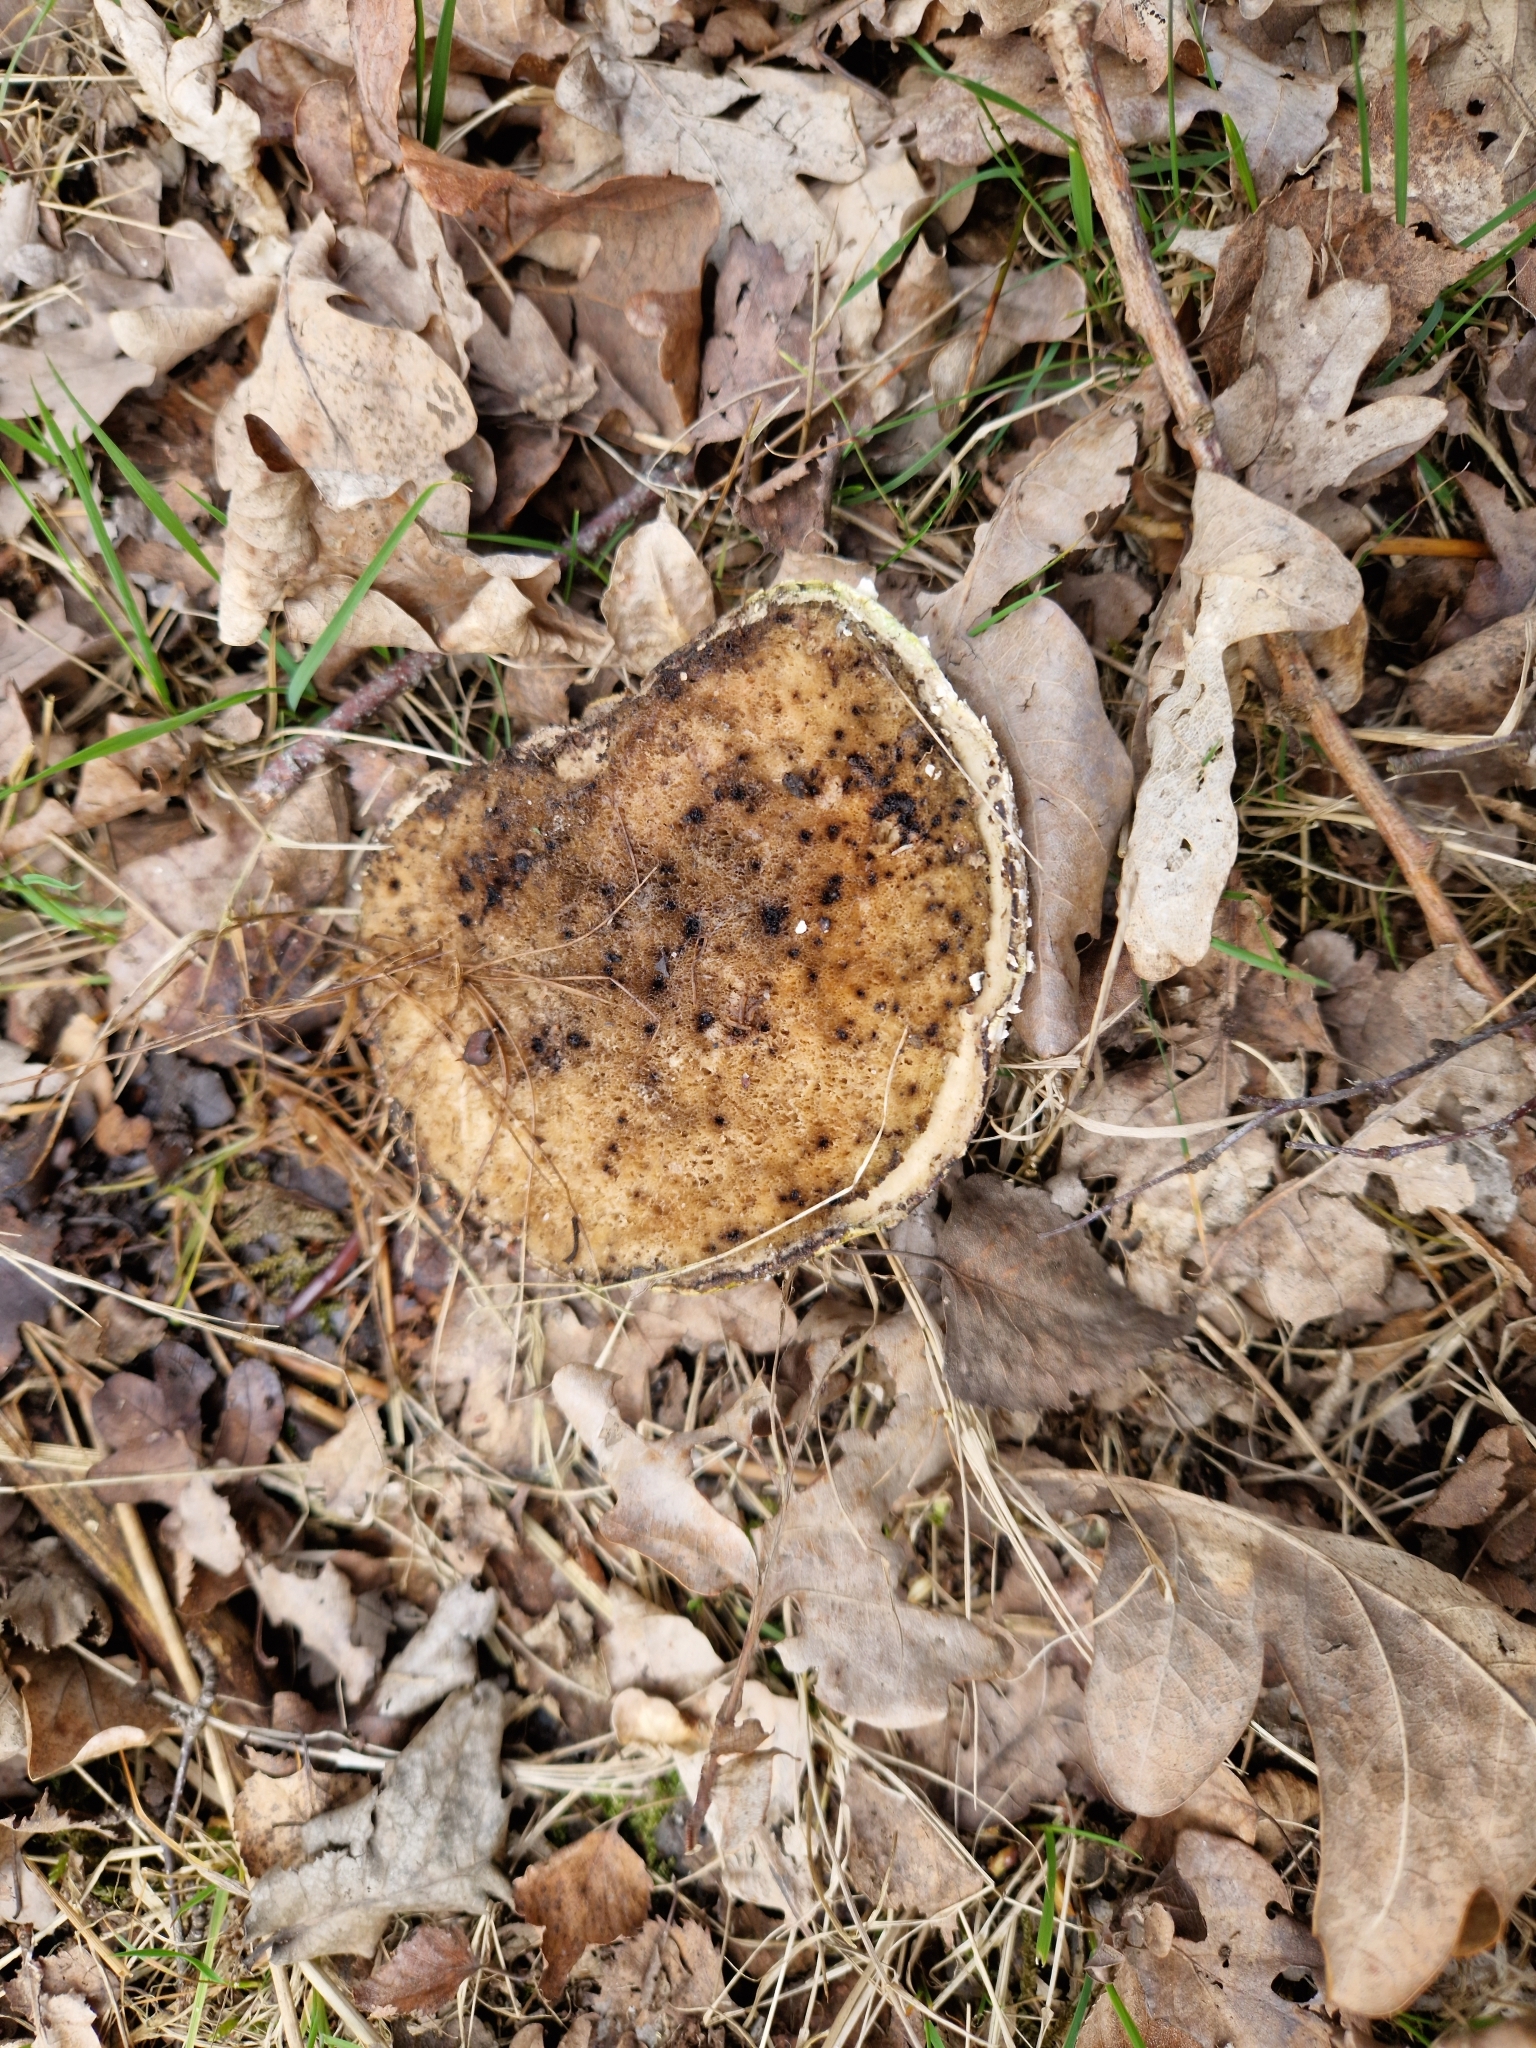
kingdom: Fungi
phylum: Basidiomycota
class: Agaricomycetes
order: Polyporales
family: Fomitopsidaceae
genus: Fomitopsis
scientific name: Fomitopsis betulina
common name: Birch polypore
